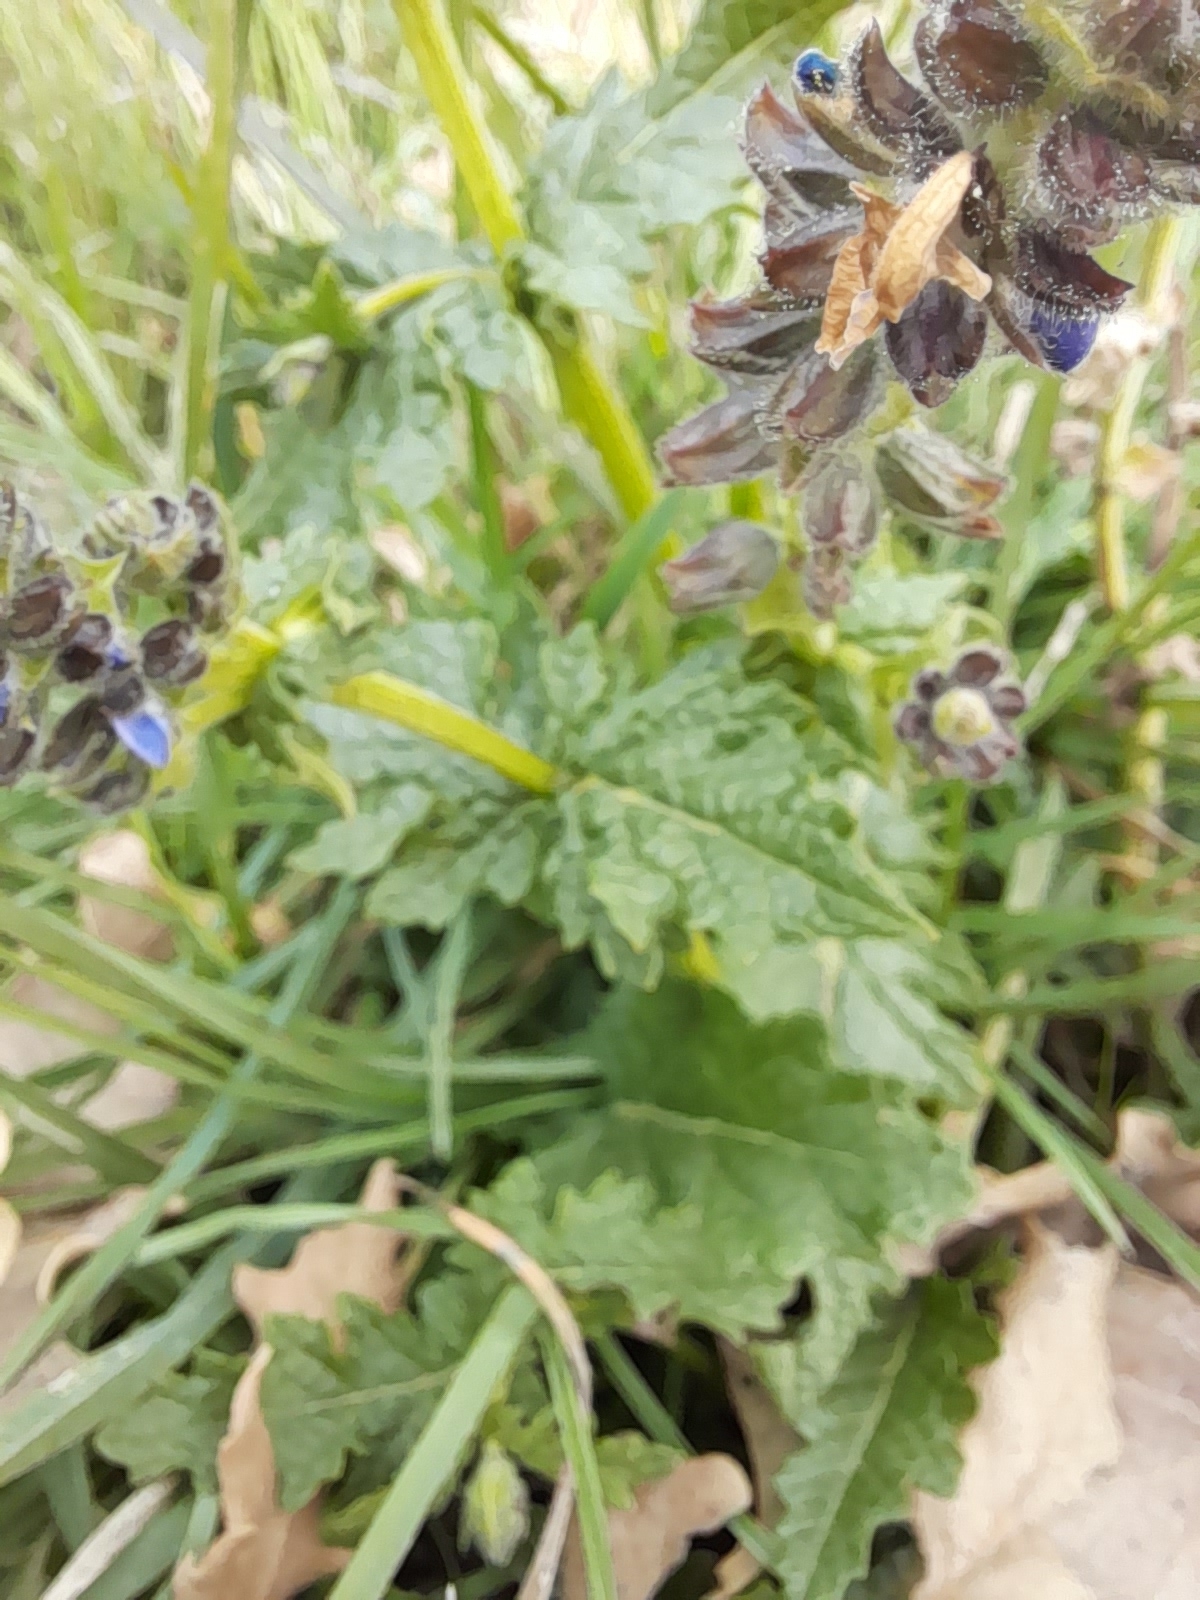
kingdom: Plantae
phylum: Tracheophyta
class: Magnoliopsida
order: Lamiales
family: Lamiaceae
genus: Salvia
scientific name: Salvia clandestina
